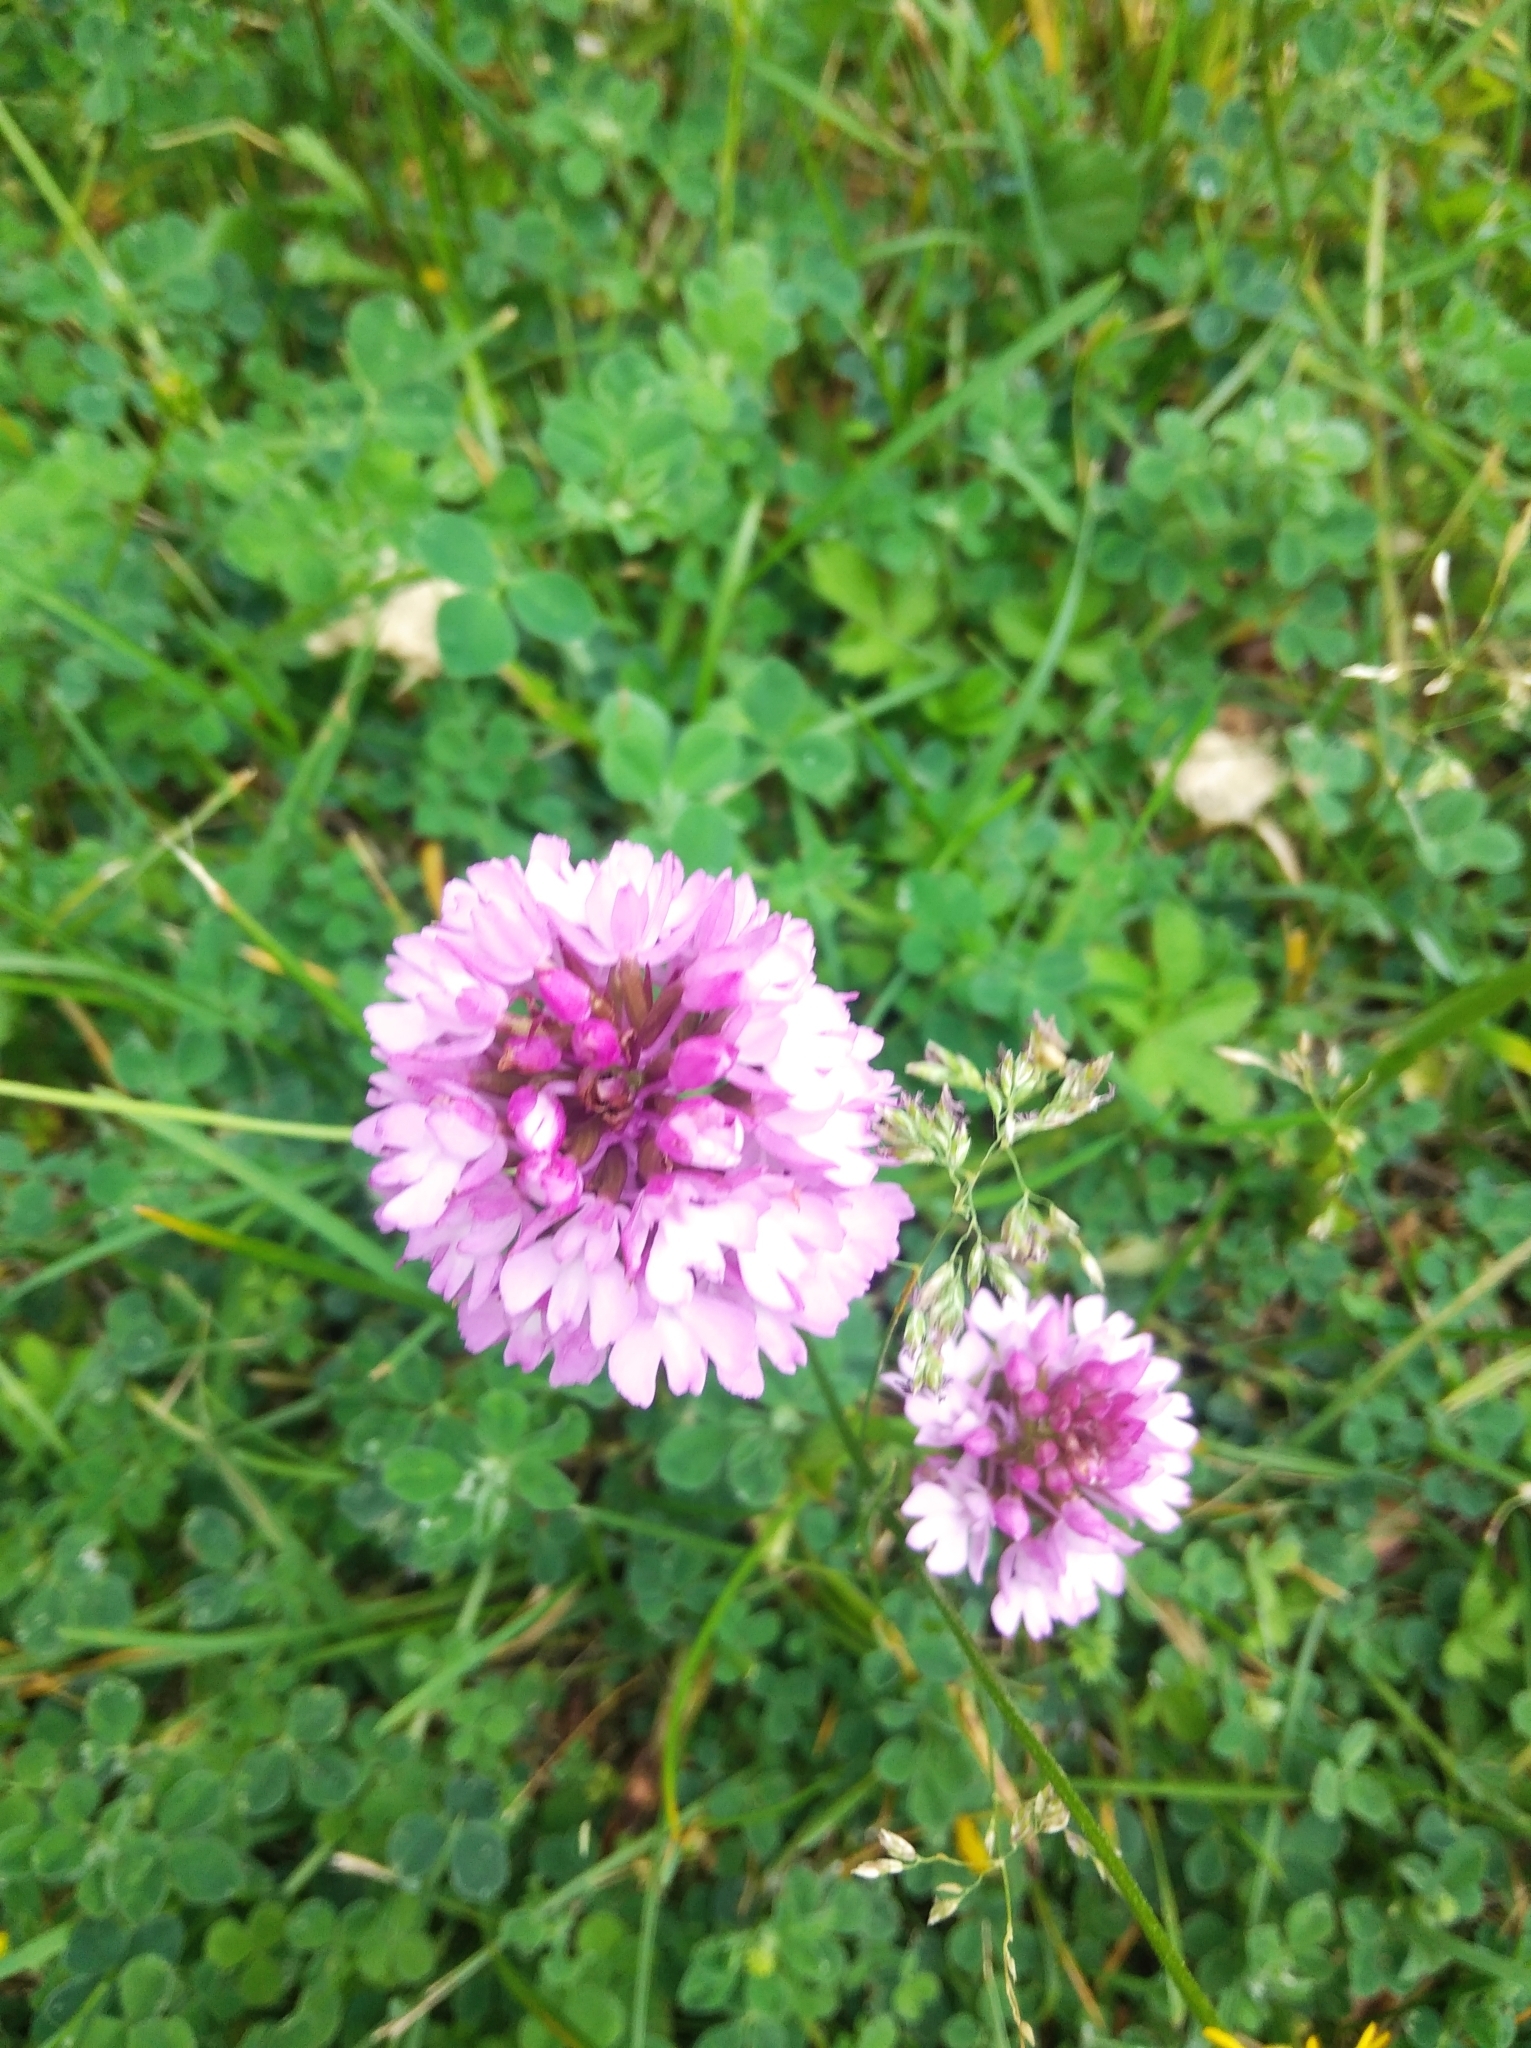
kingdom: Plantae
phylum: Tracheophyta
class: Liliopsida
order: Asparagales
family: Orchidaceae
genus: Anacamptis
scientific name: Anacamptis pyramidalis
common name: Pyramidal orchid
